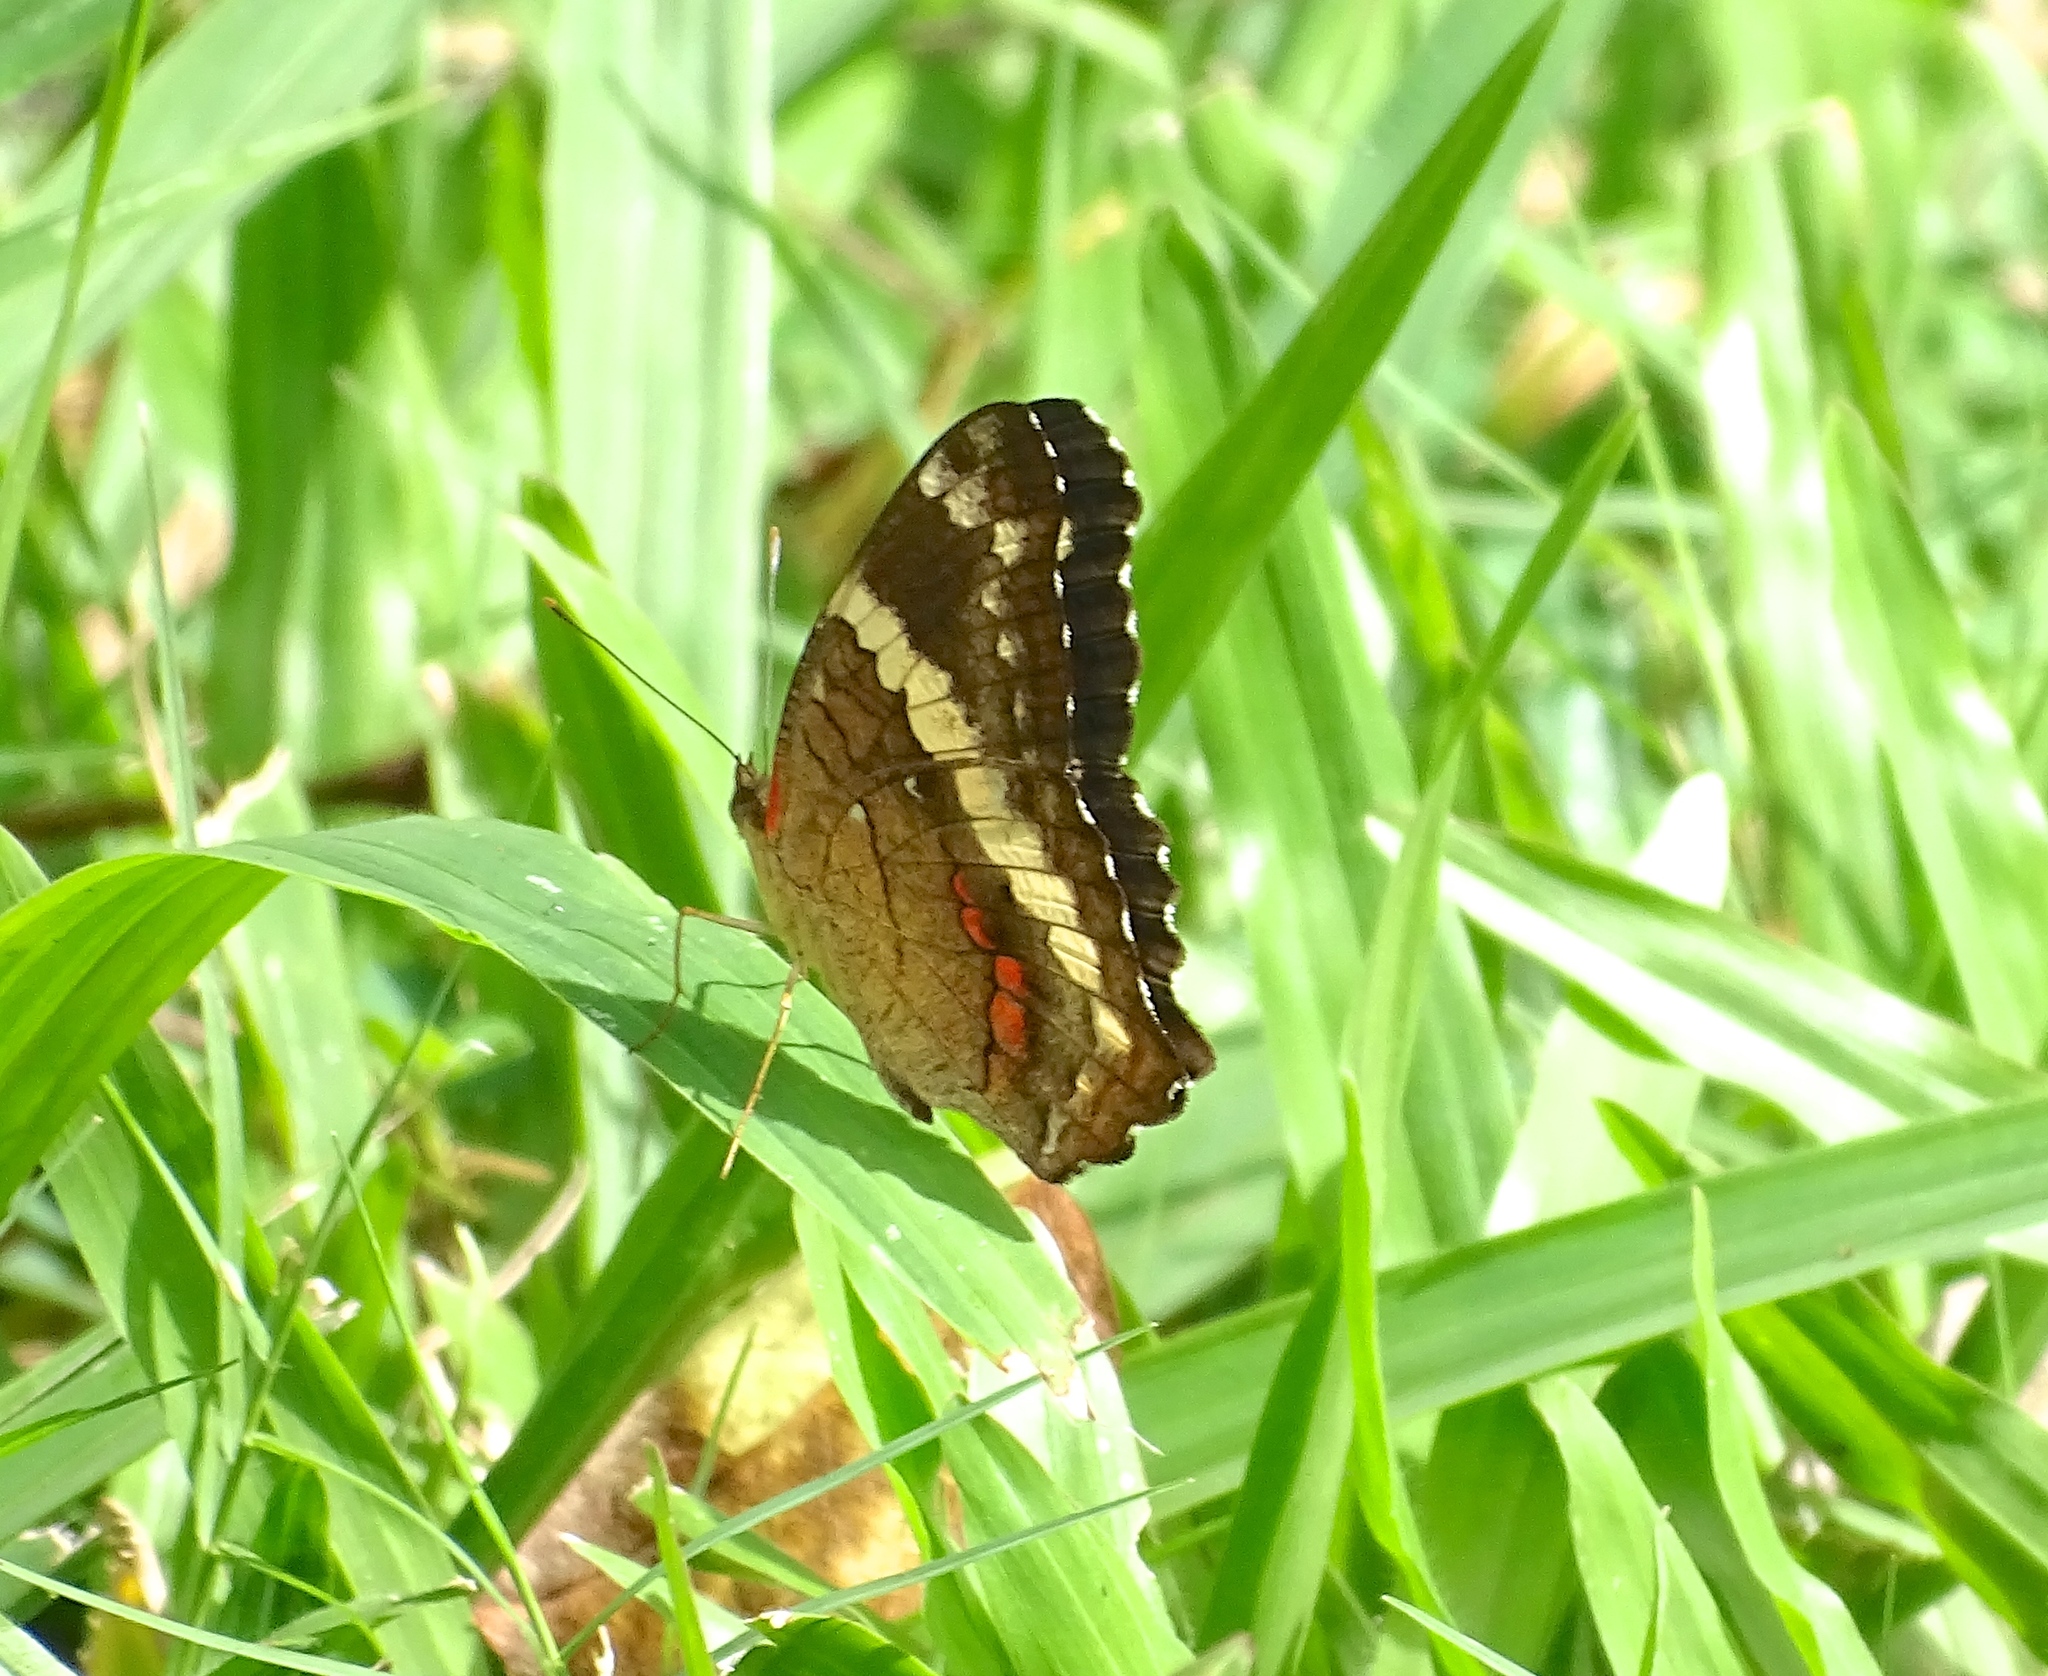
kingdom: Animalia
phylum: Arthropoda
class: Insecta
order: Lepidoptera
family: Nymphalidae
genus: Anartia
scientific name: Anartia fatima
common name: Banded peacock
